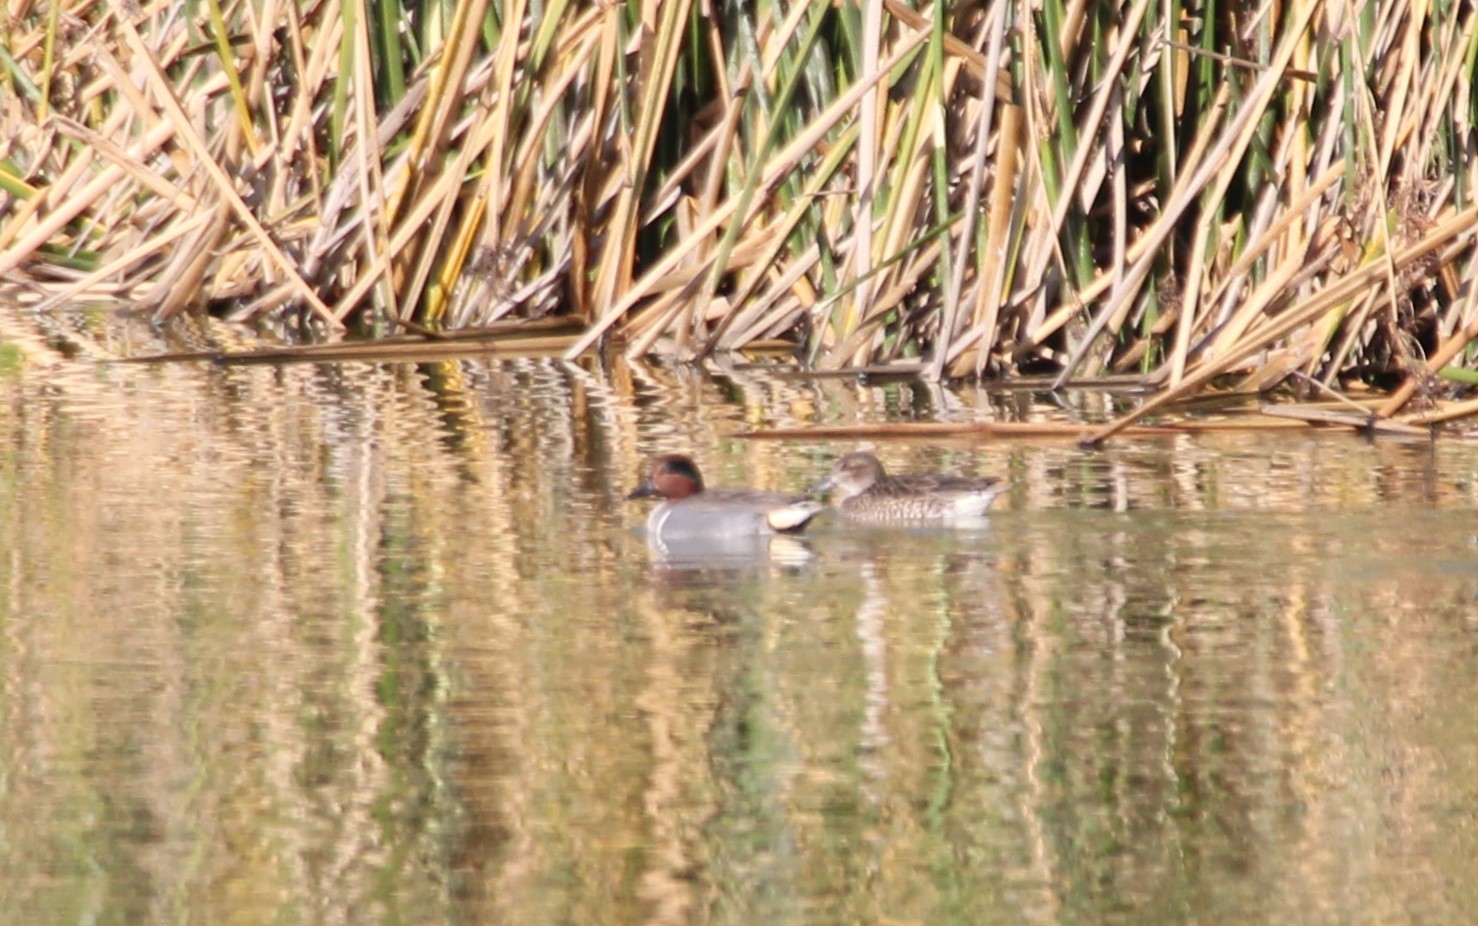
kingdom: Animalia
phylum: Chordata
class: Aves
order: Anseriformes
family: Anatidae
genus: Anas
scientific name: Anas crecca
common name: Eurasian teal
